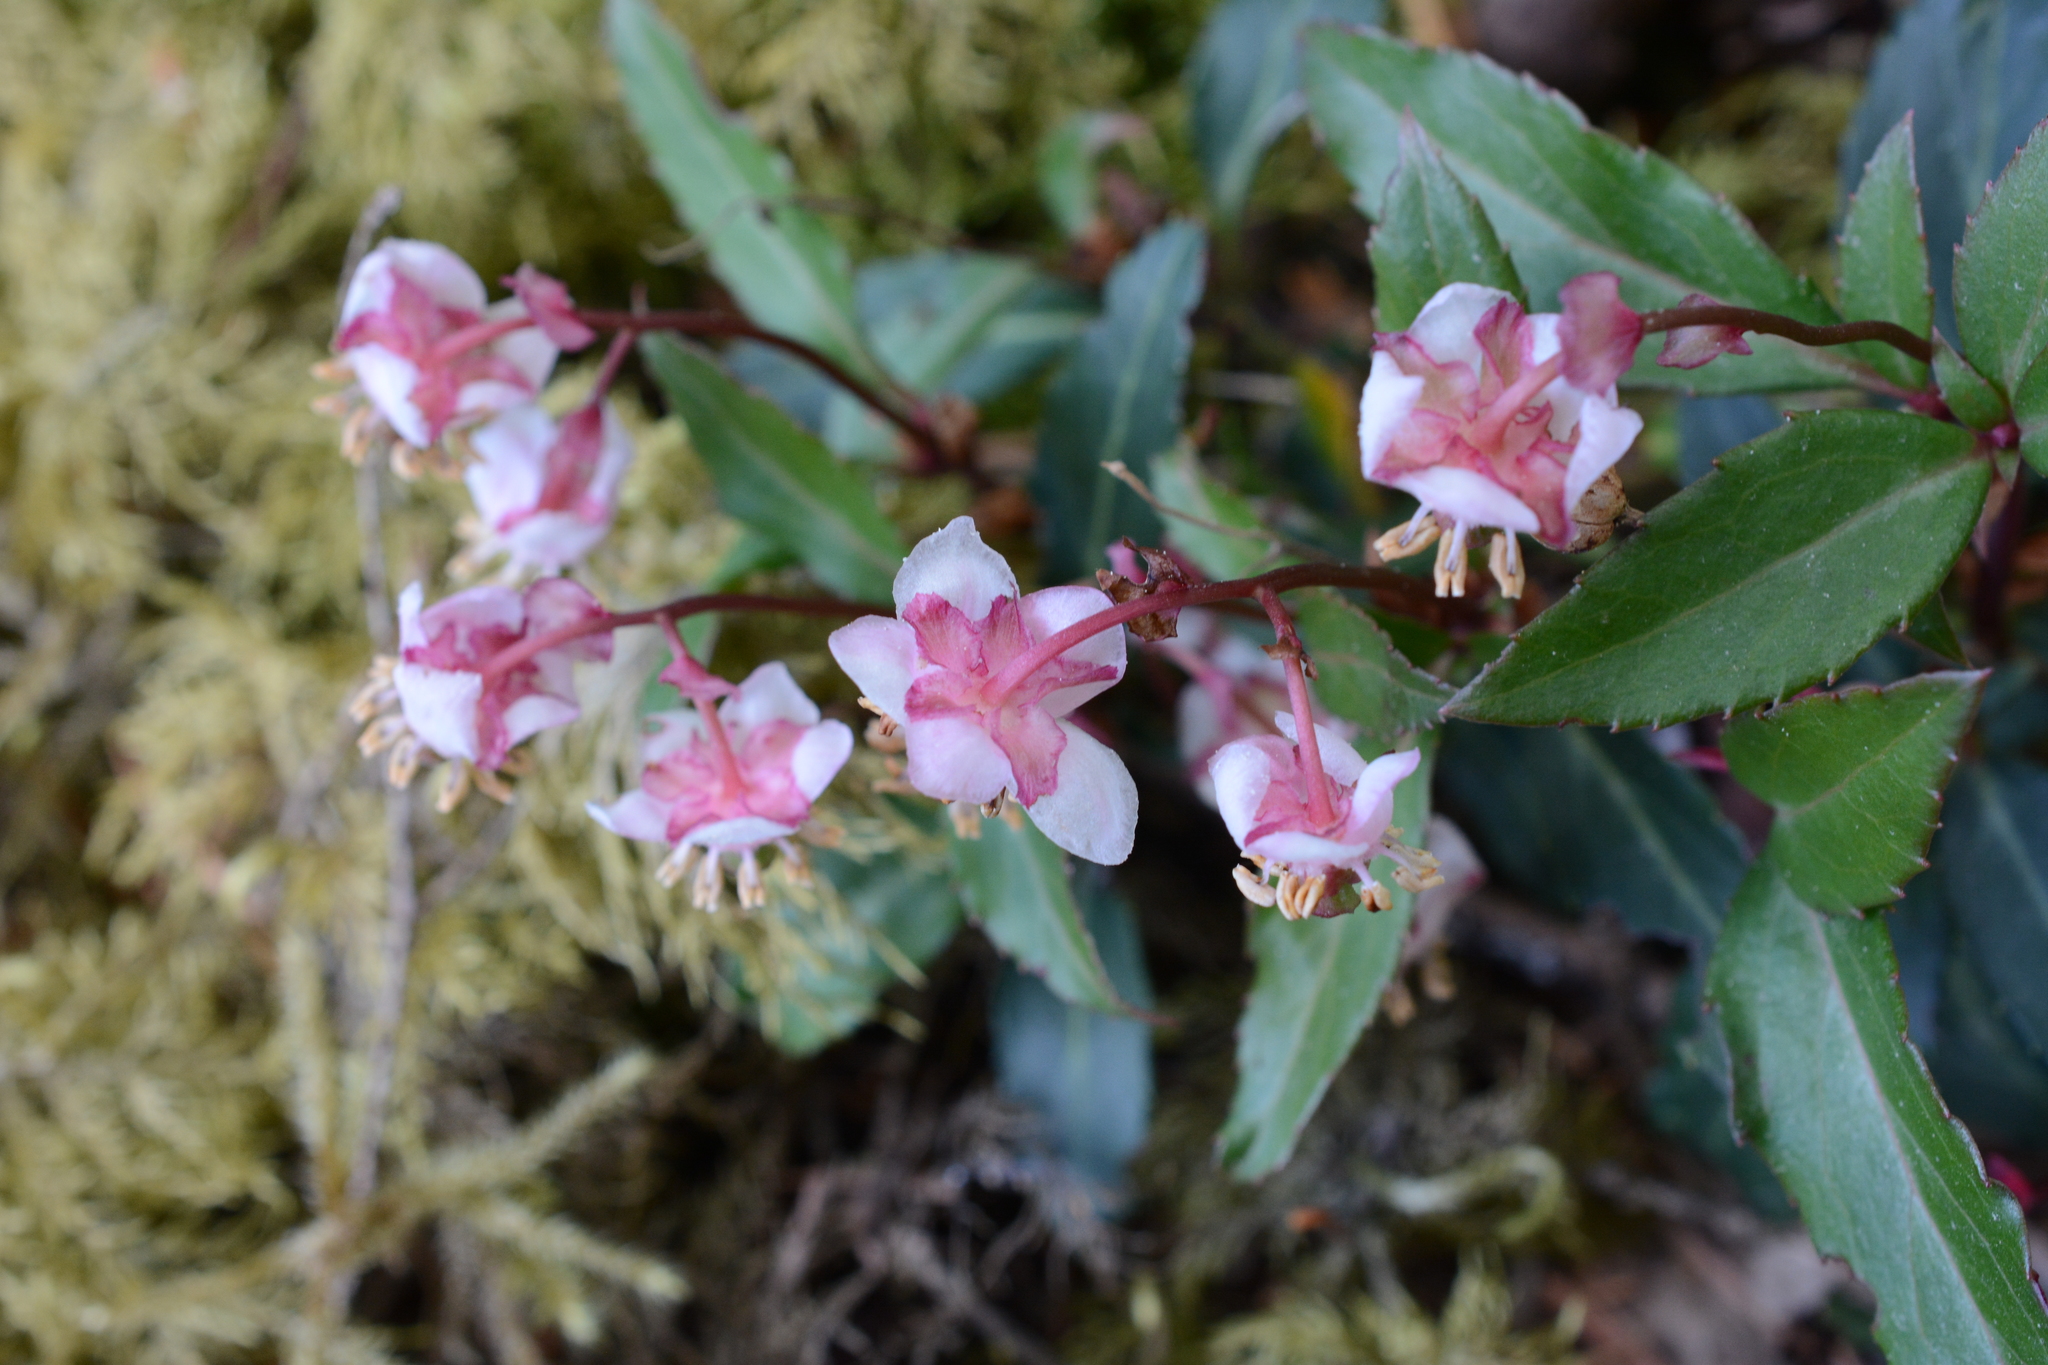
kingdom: Plantae
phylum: Tracheophyta
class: Magnoliopsida
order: Ericales
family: Ericaceae
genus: Chimaphila
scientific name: Chimaphila menziesii
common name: Menzies' pipsissewa
